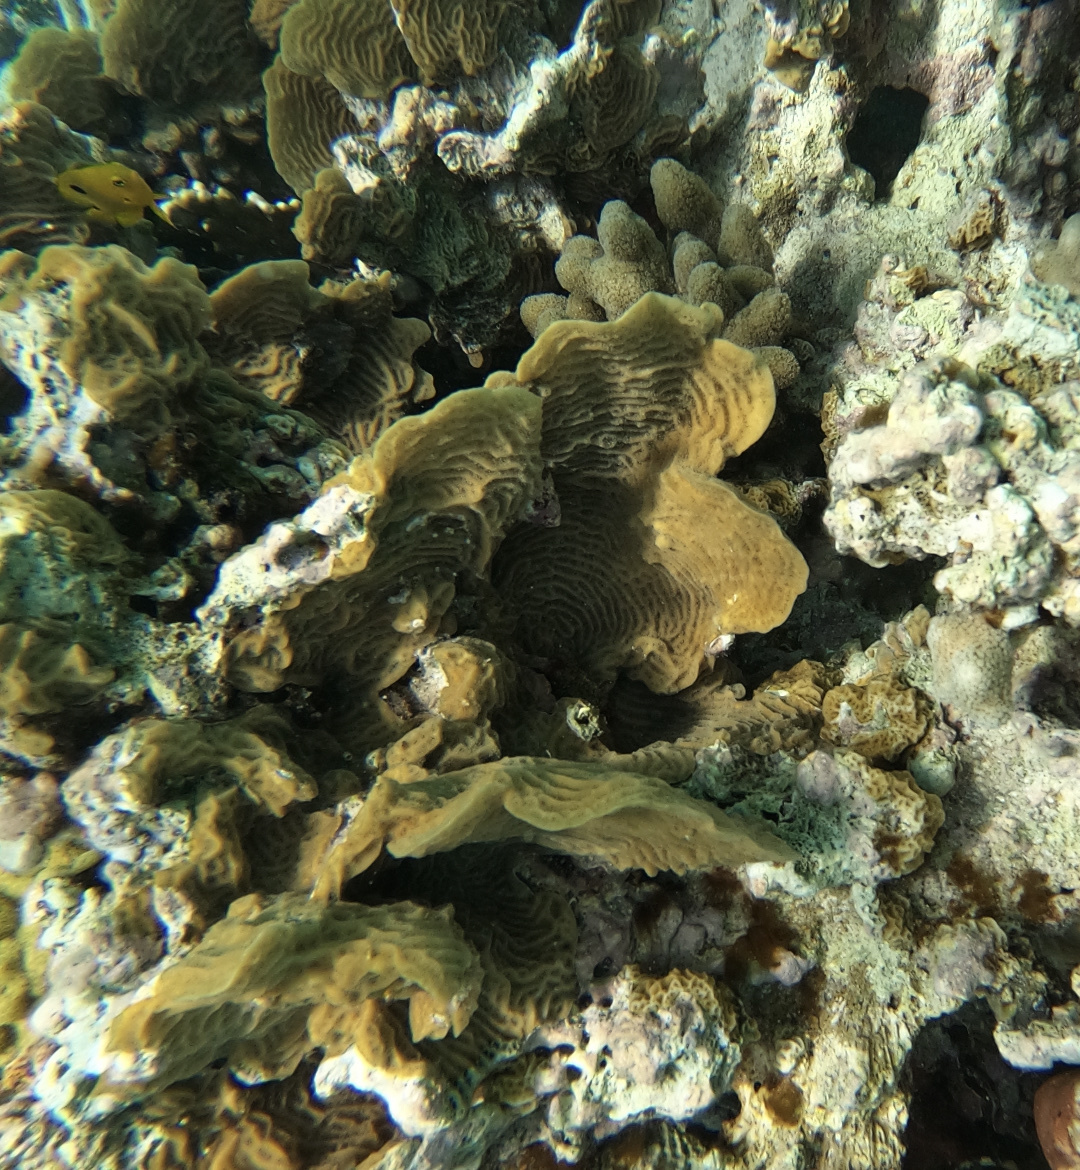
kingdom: Animalia
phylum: Cnidaria
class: Anthozoa
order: Scleractinia
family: Agariciidae
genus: Agaricia
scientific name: Agaricia agaricites
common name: Lettuce coral
